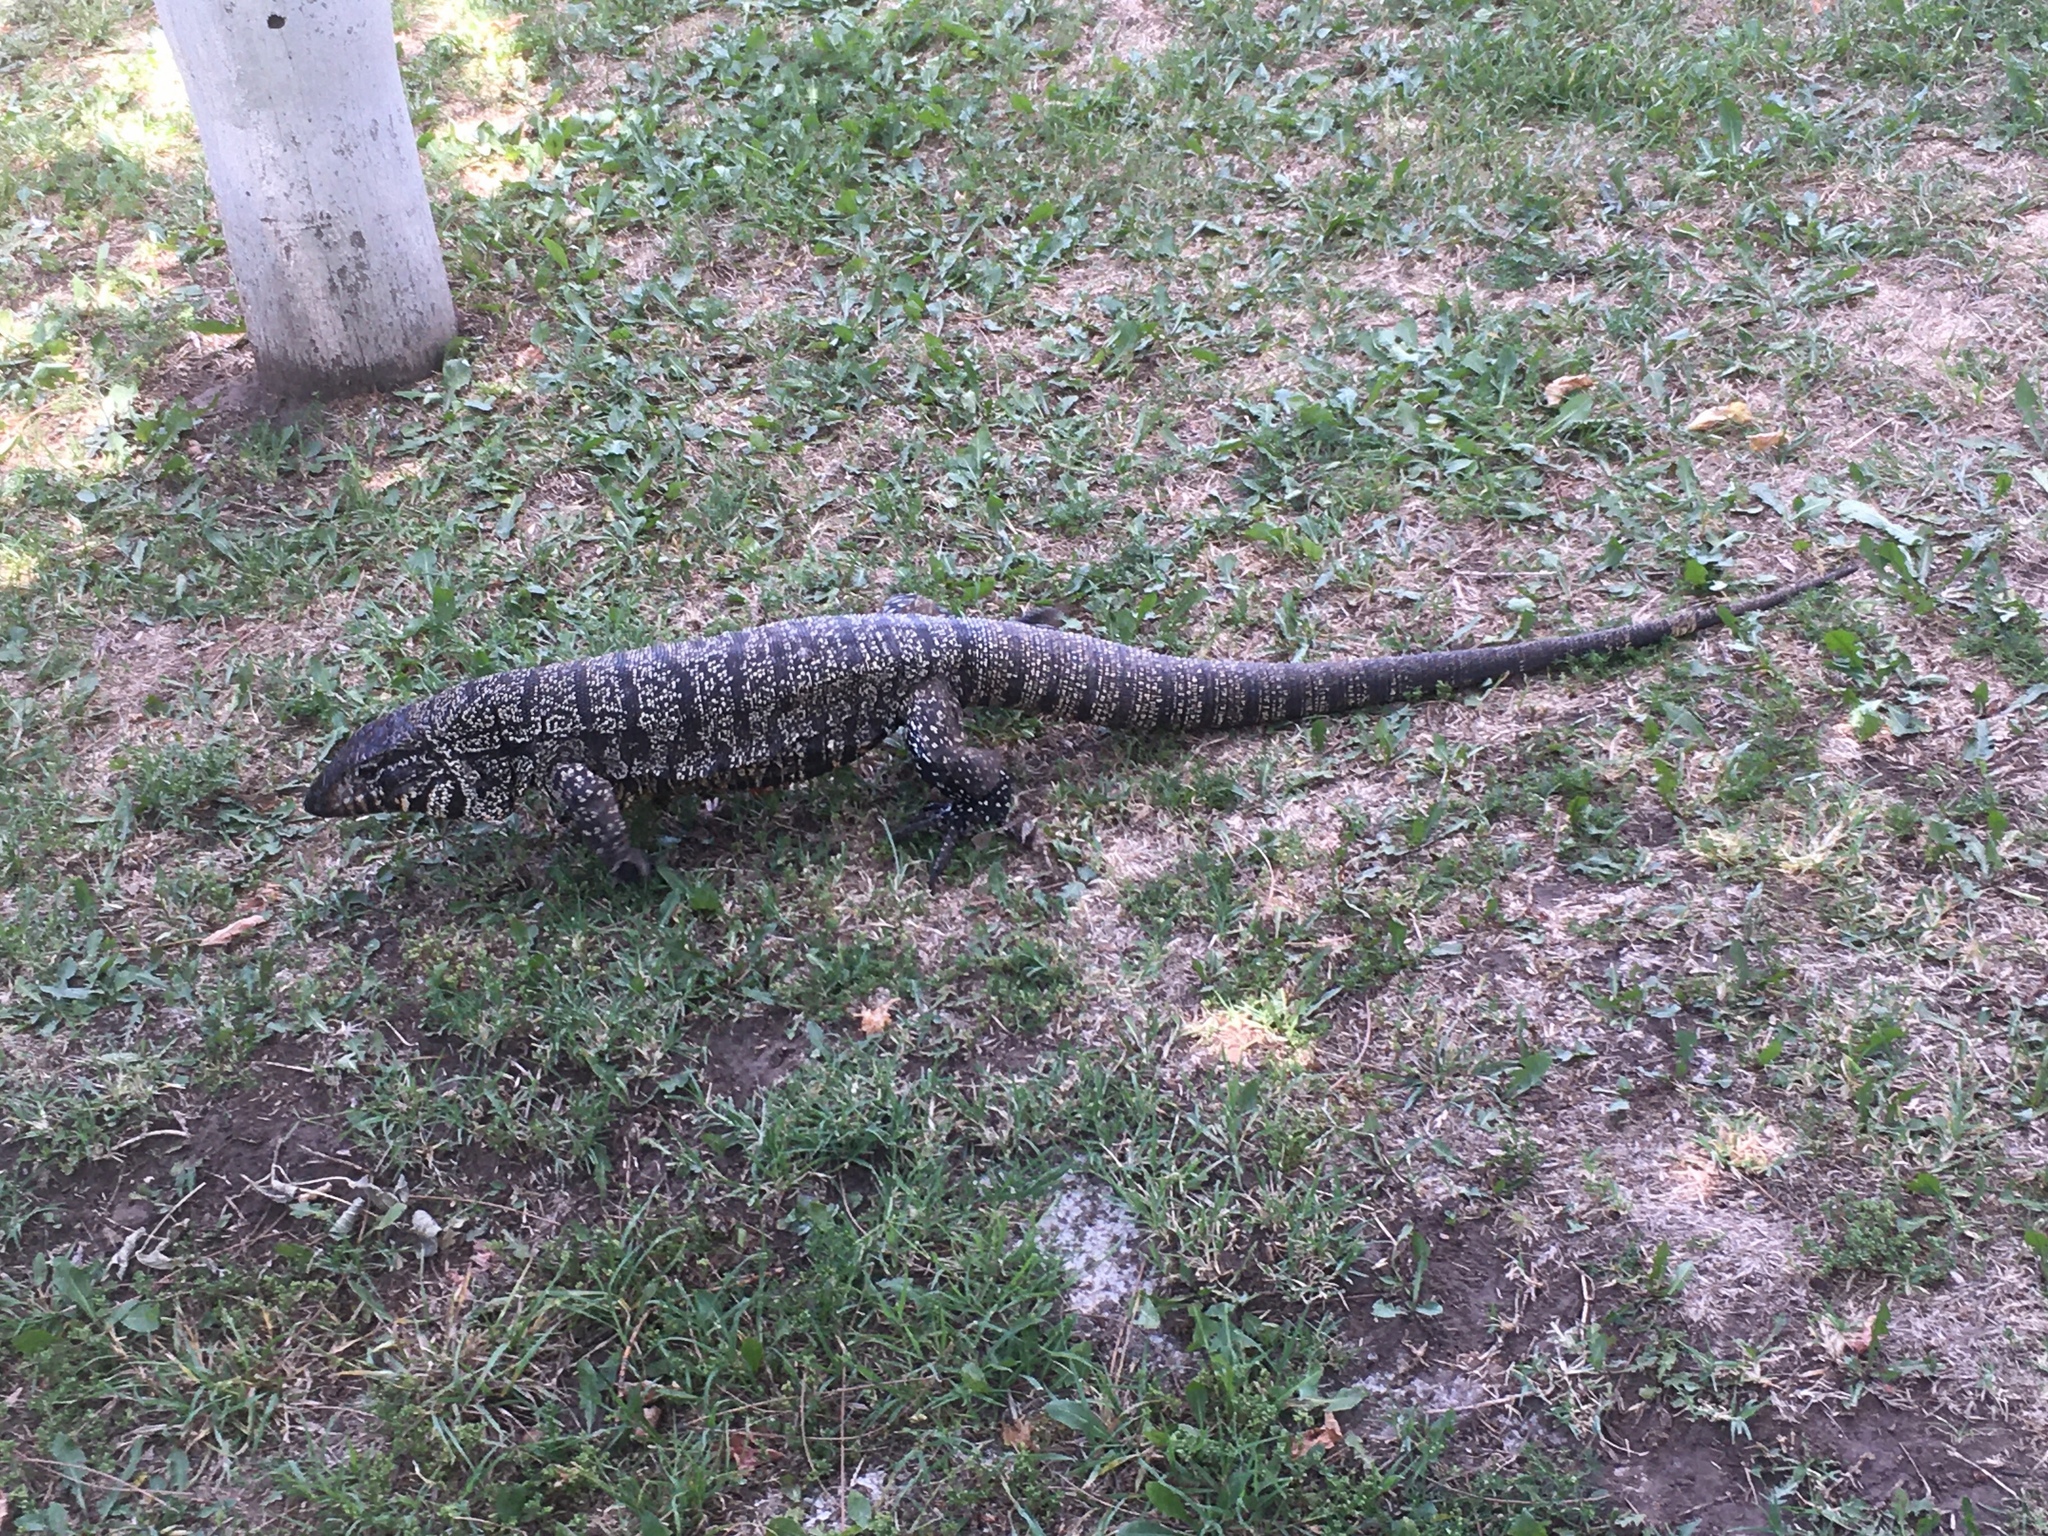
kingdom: Animalia
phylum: Chordata
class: Squamata
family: Teiidae
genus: Salvator
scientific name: Salvator merianae
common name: Argentine black and white tegu
